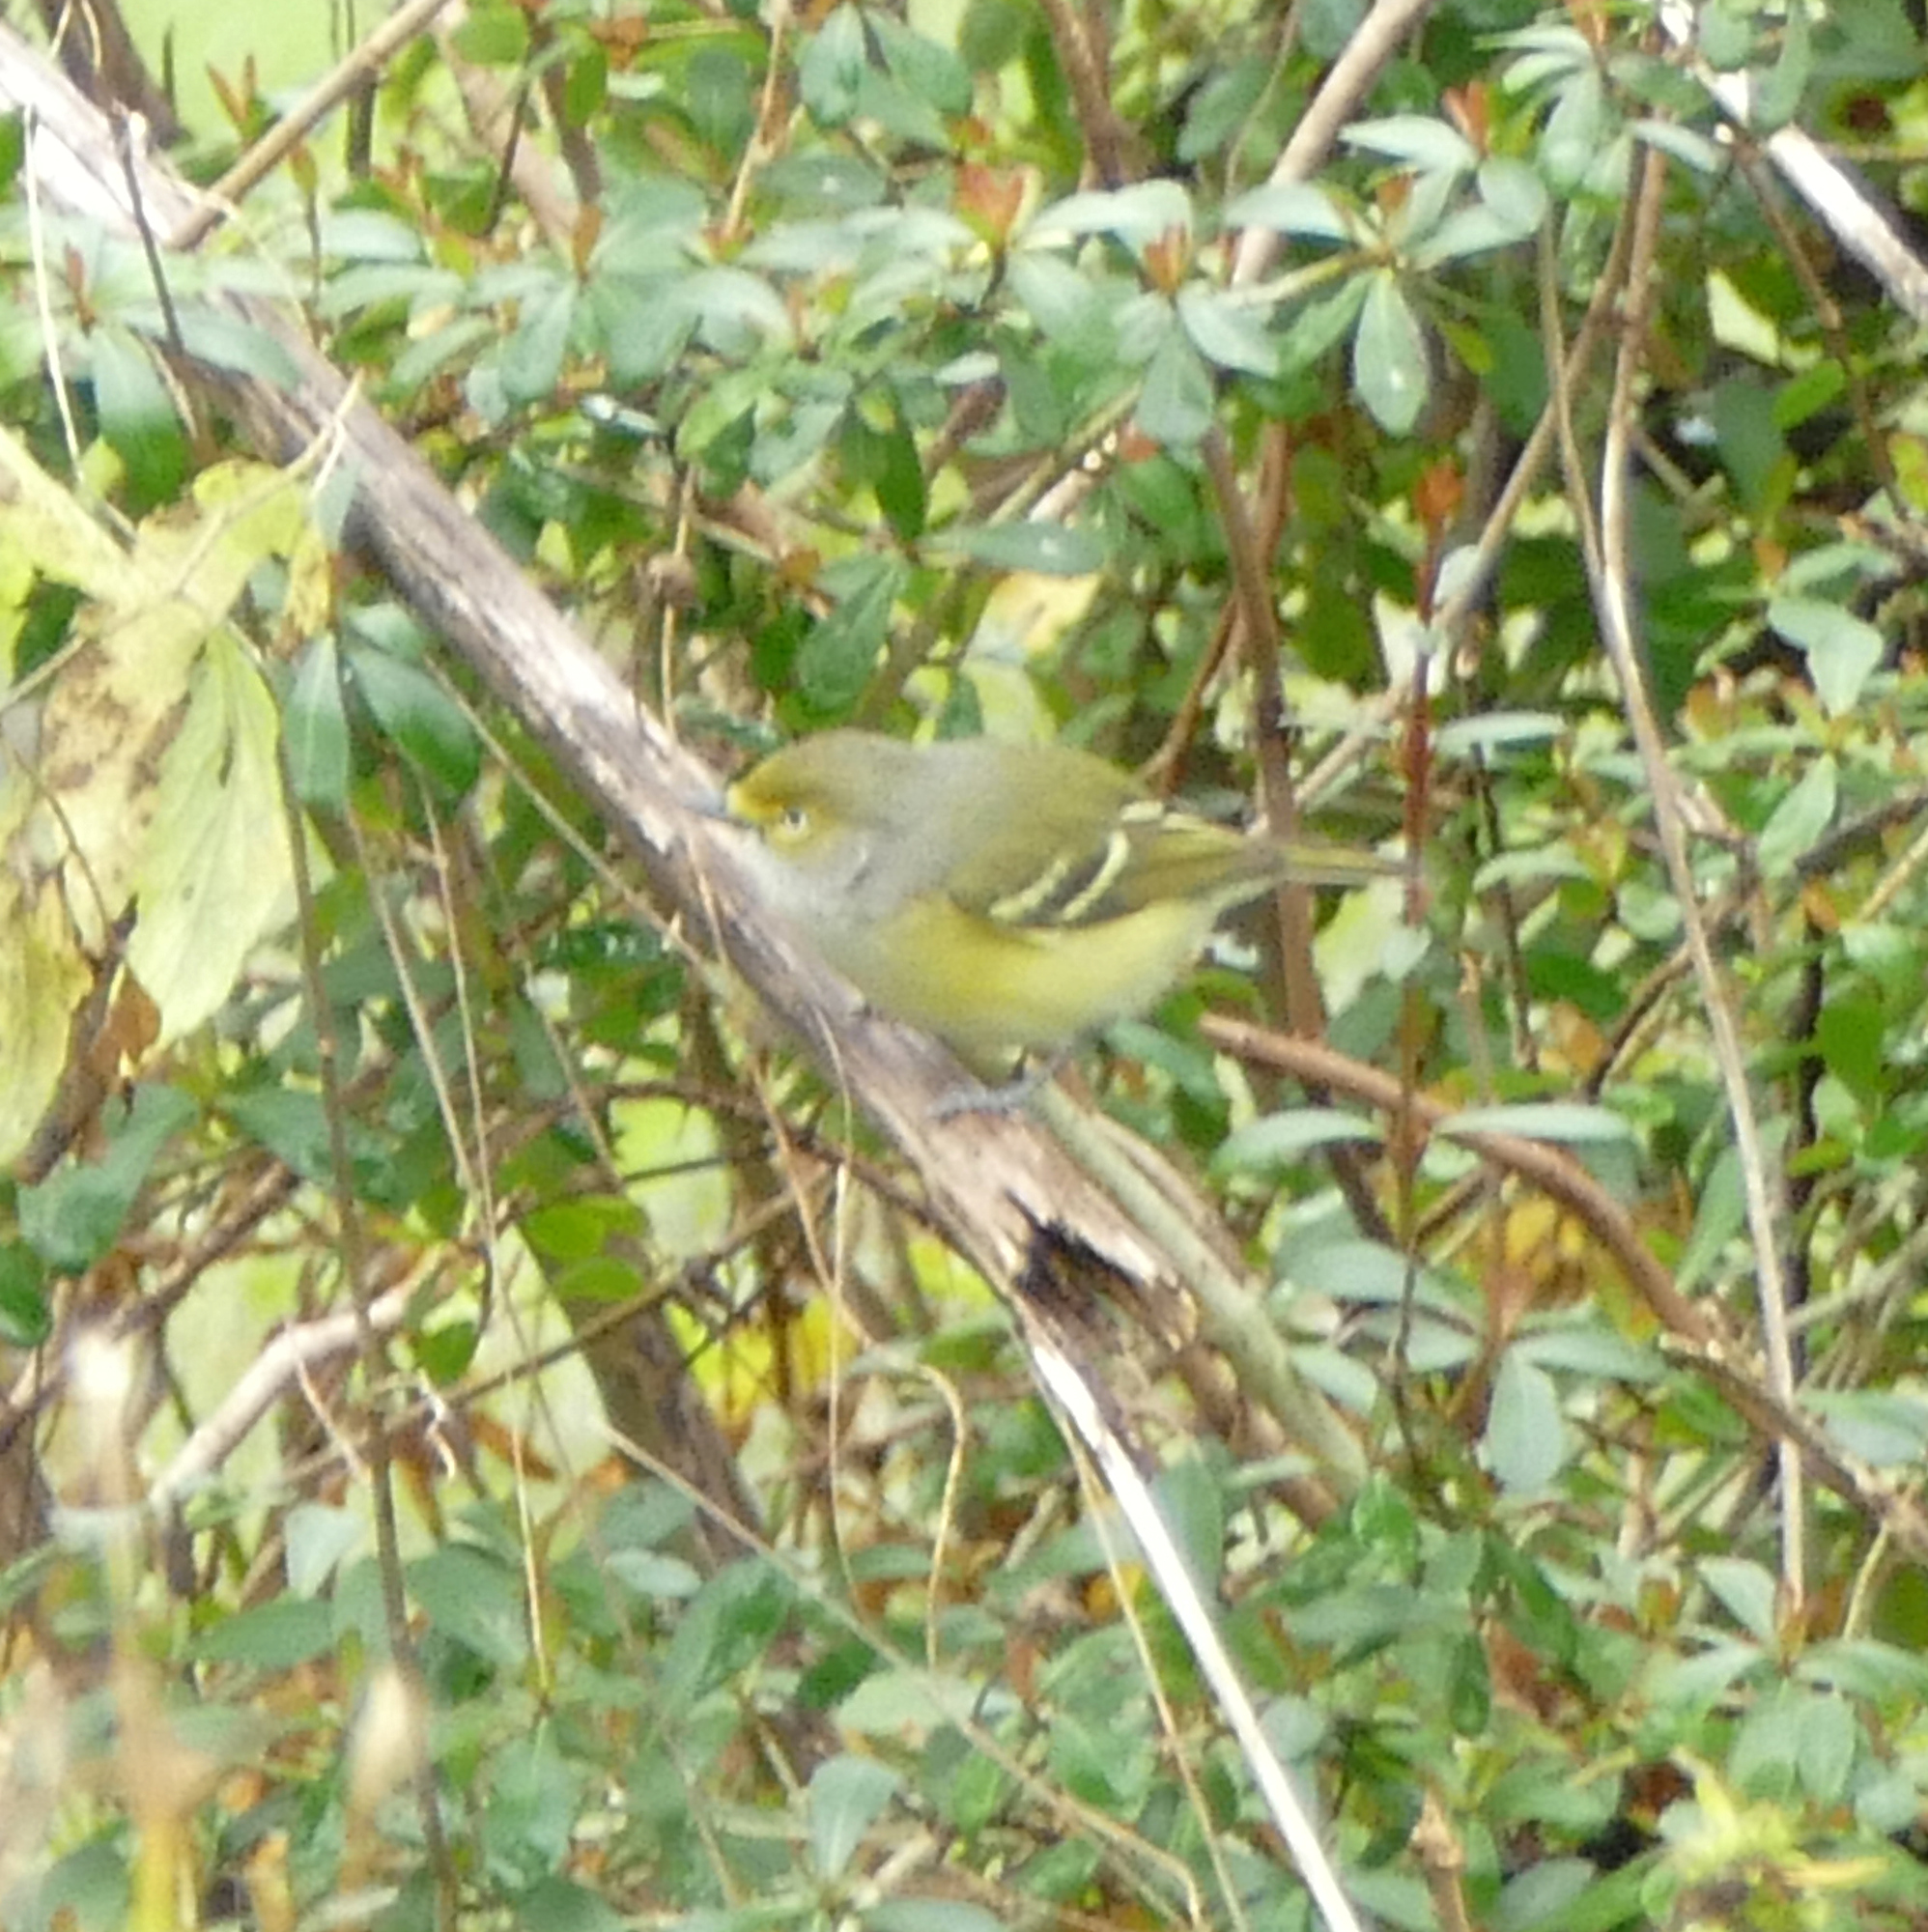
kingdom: Animalia
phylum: Chordata
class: Aves
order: Passeriformes
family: Vireonidae
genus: Vireo
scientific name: Vireo griseus
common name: White-eyed vireo
